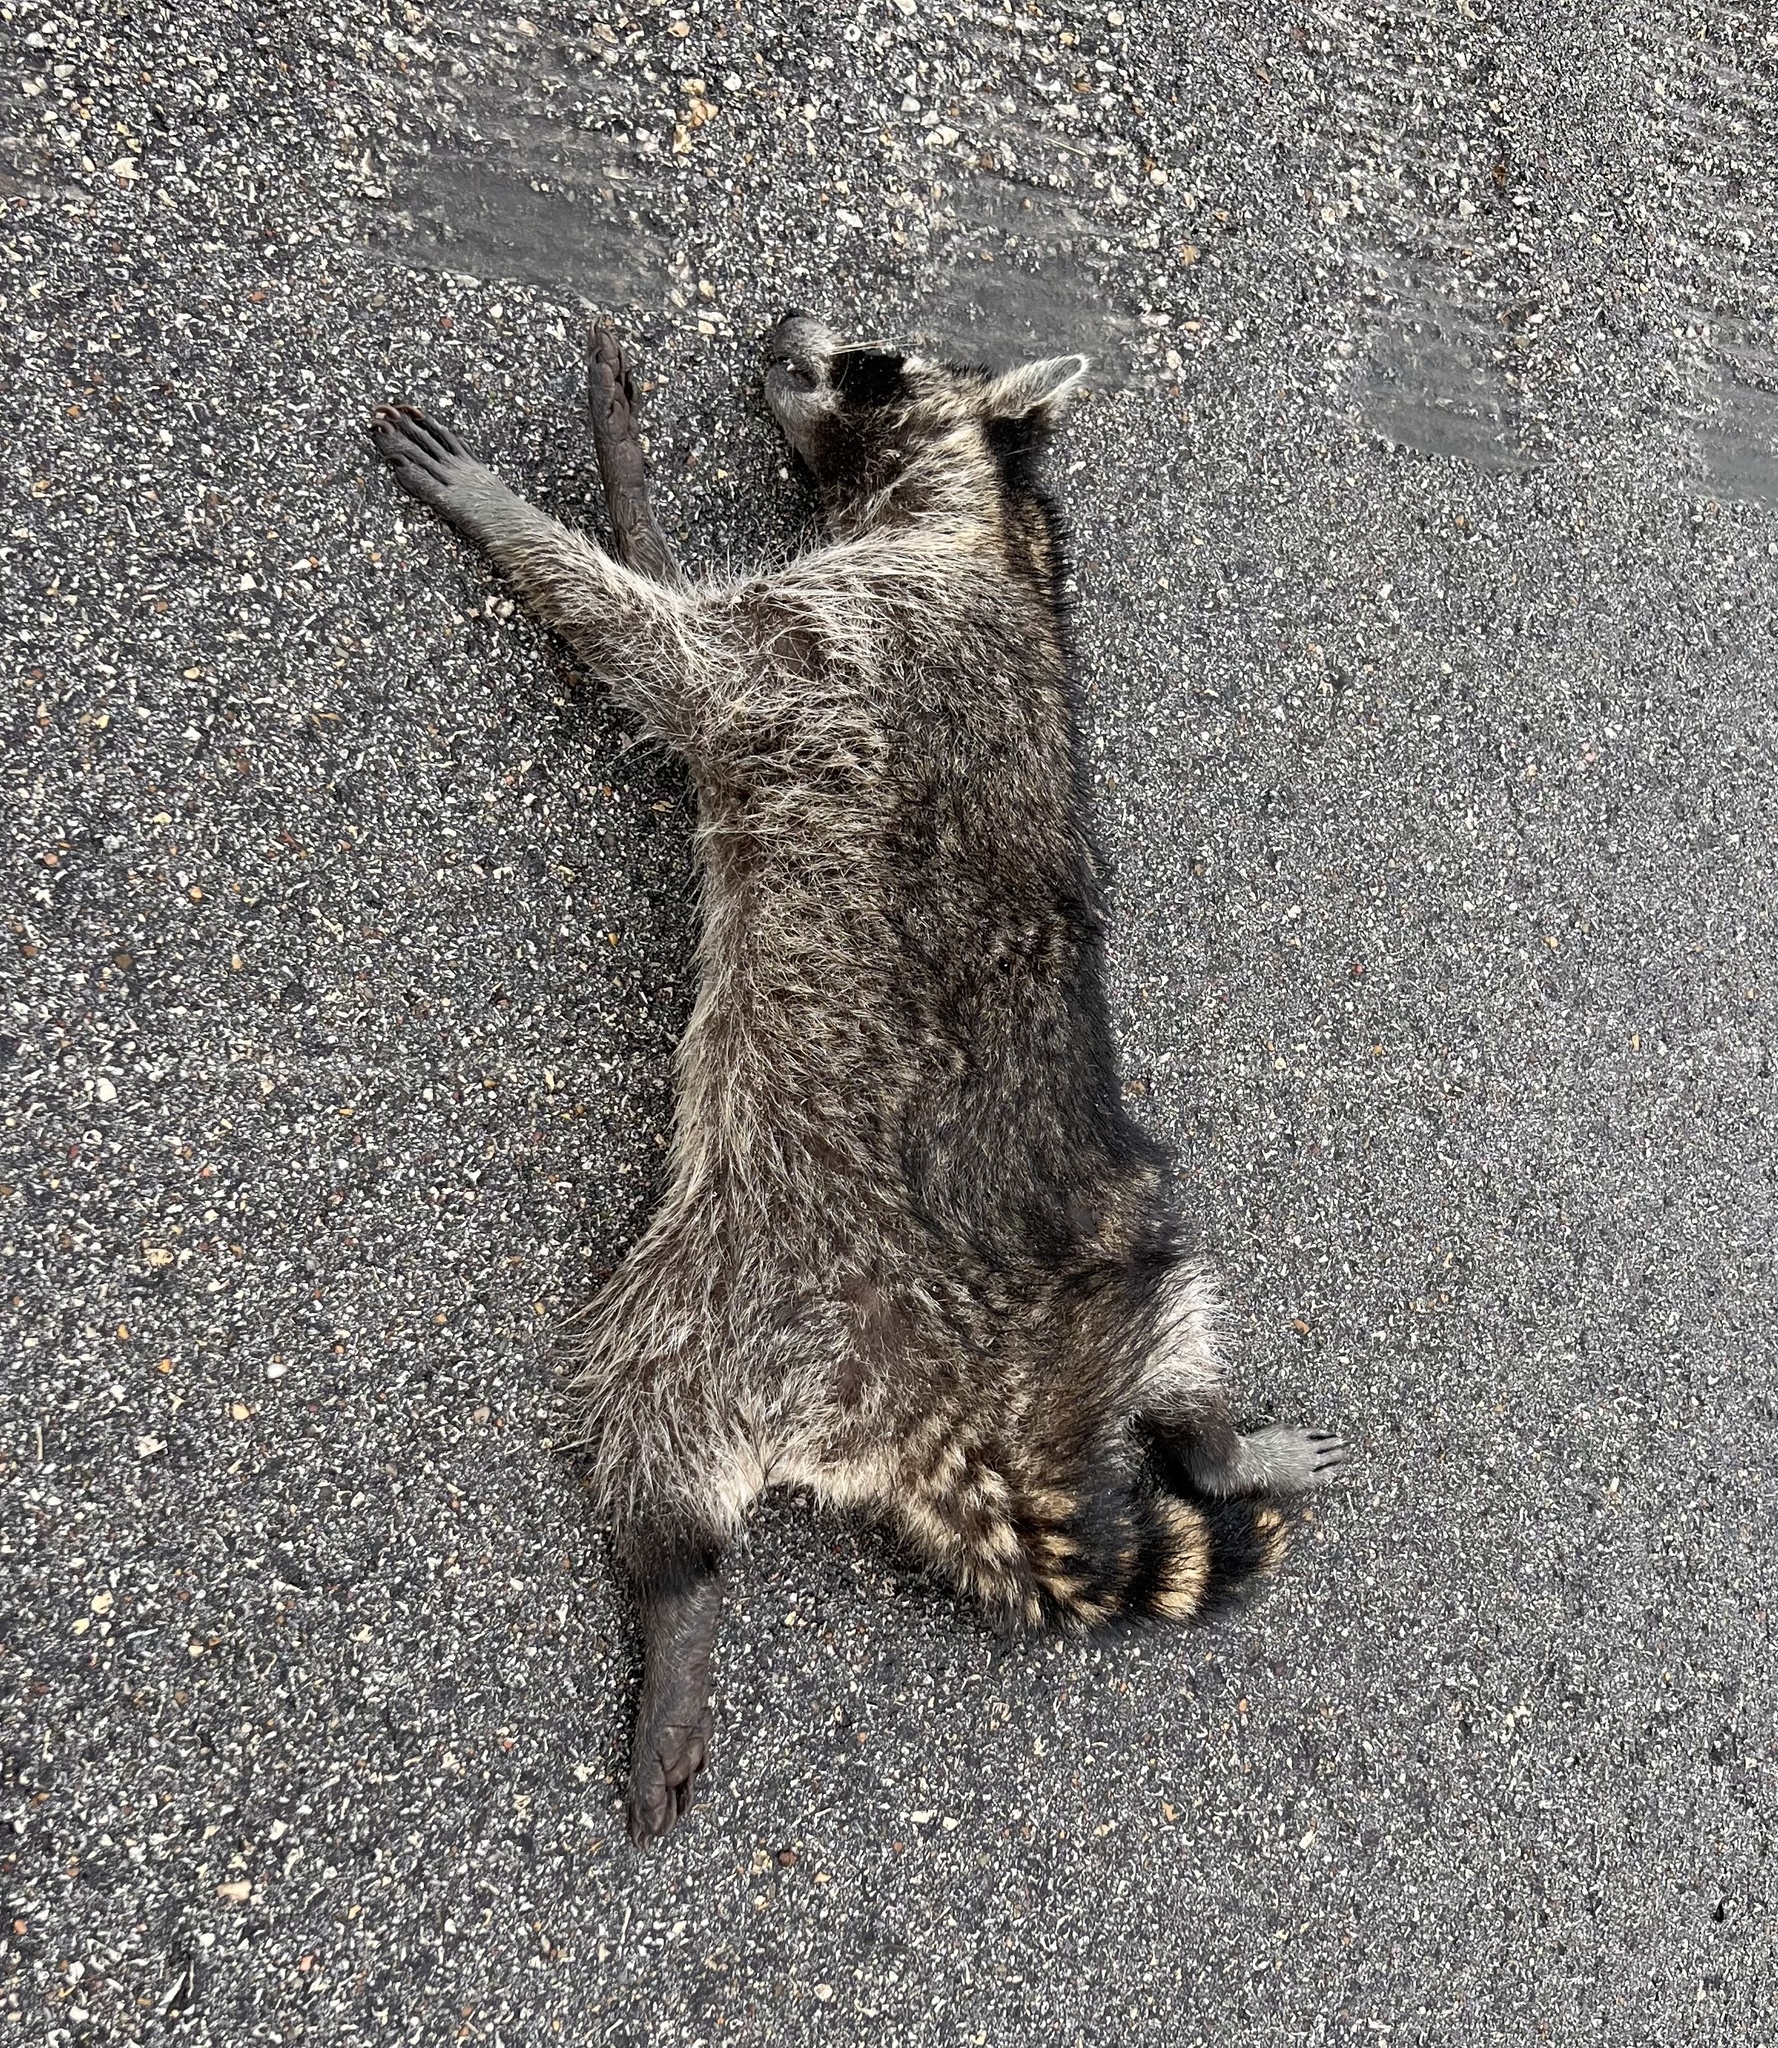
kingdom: Animalia
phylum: Chordata
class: Mammalia
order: Carnivora
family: Procyonidae
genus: Procyon
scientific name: Procyon lotor
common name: Raccoon
